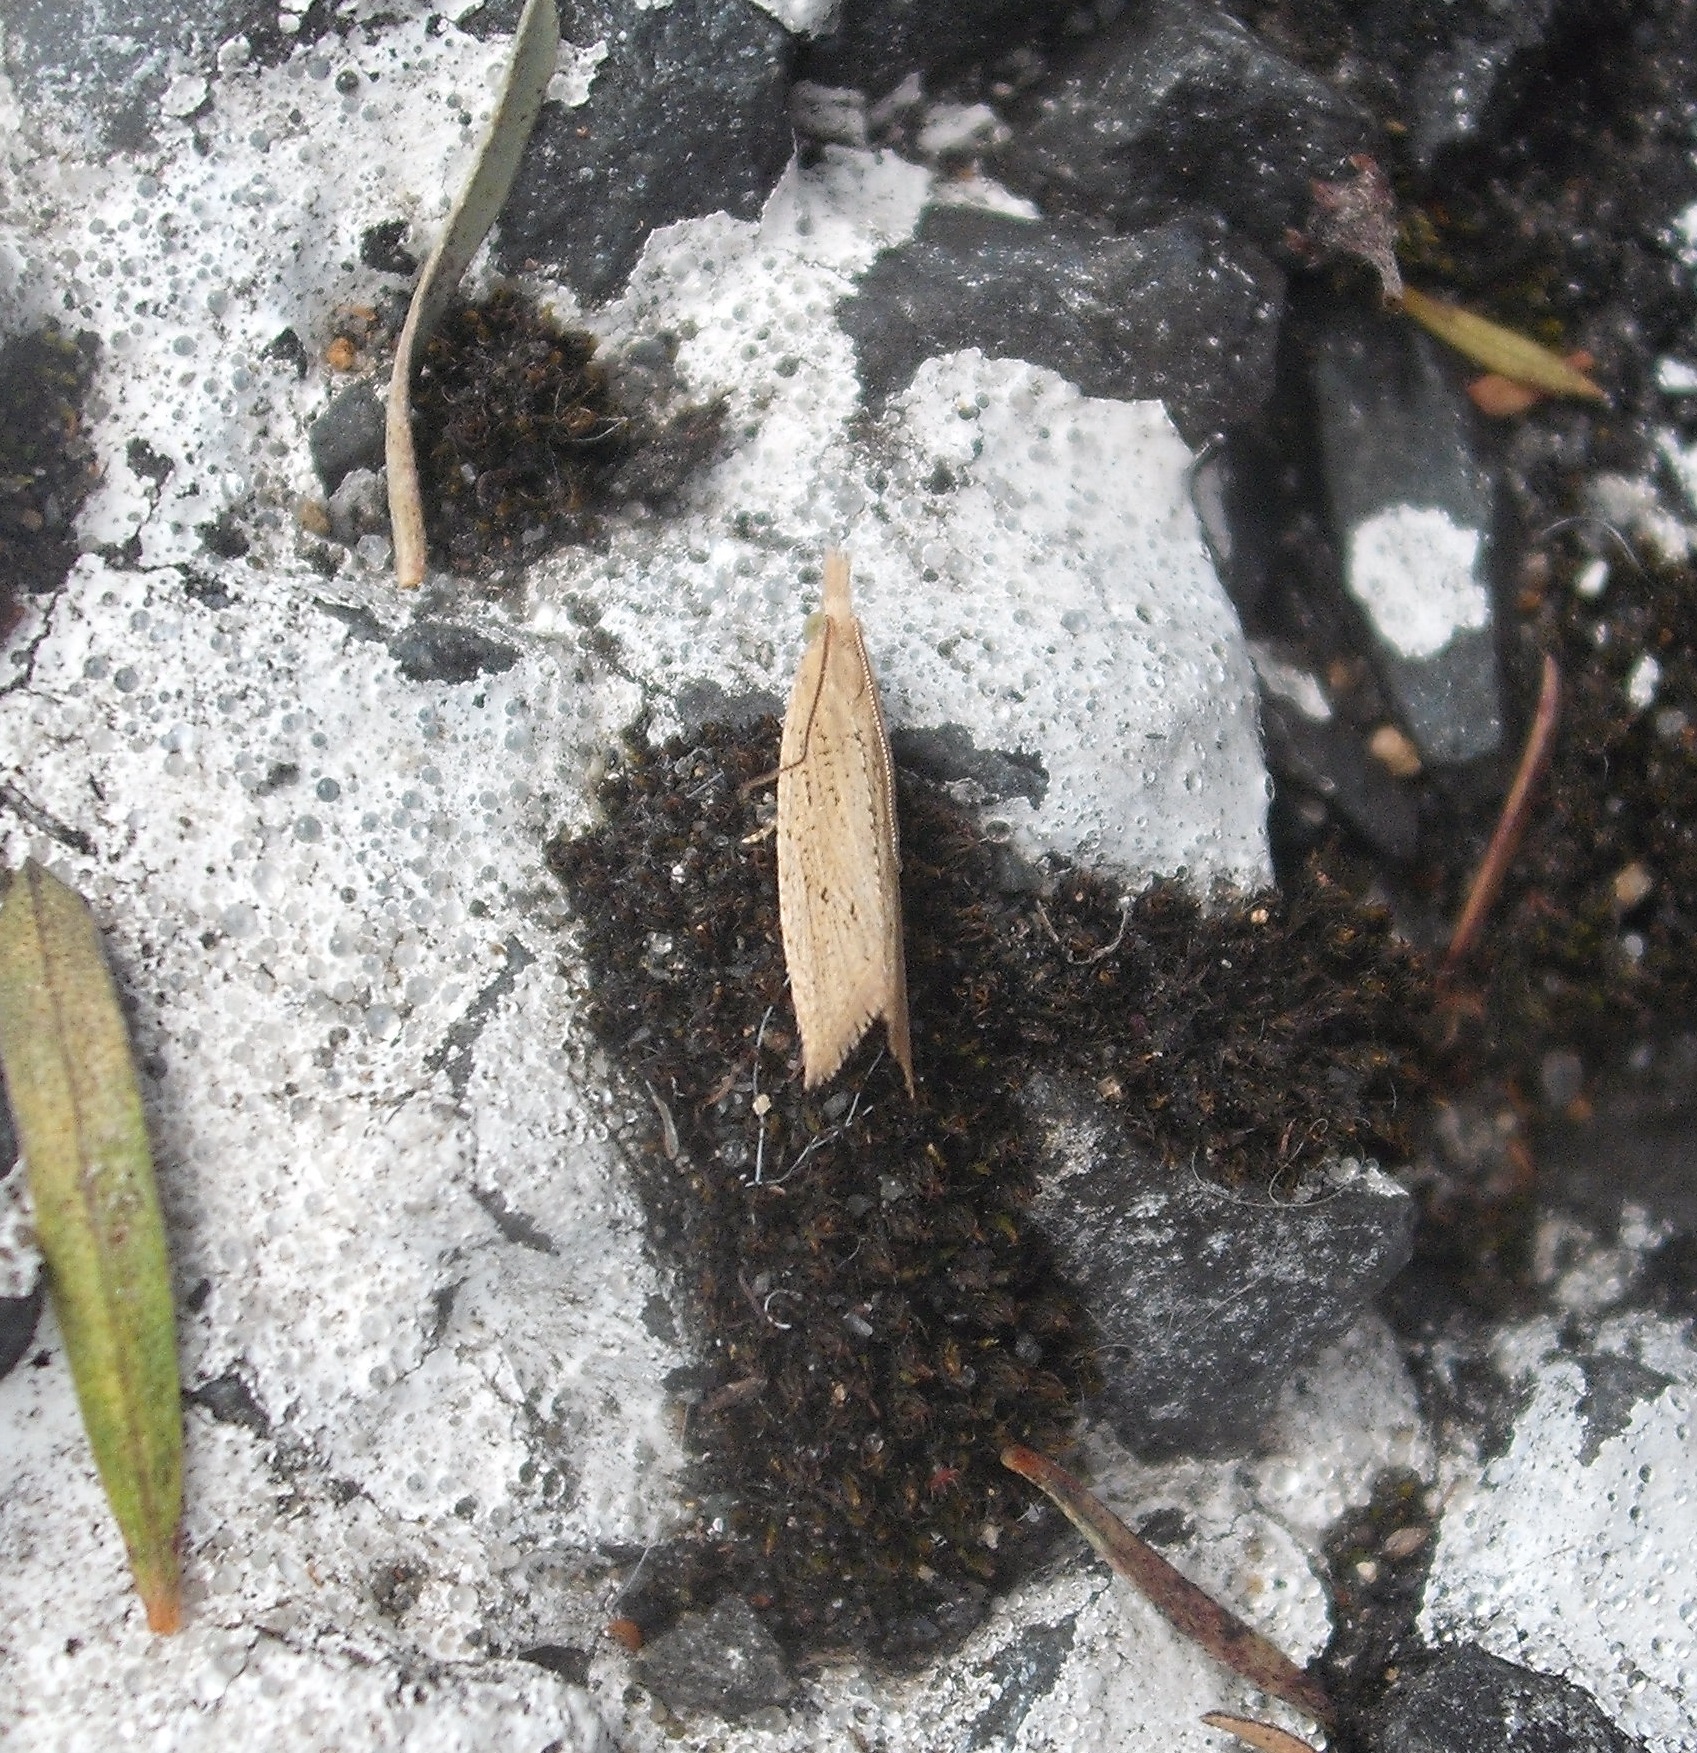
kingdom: Animalia
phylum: Arthropoda
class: Insecta
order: Lepidoptera
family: Tortricidae
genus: Bactra
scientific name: Bactra noteraula
